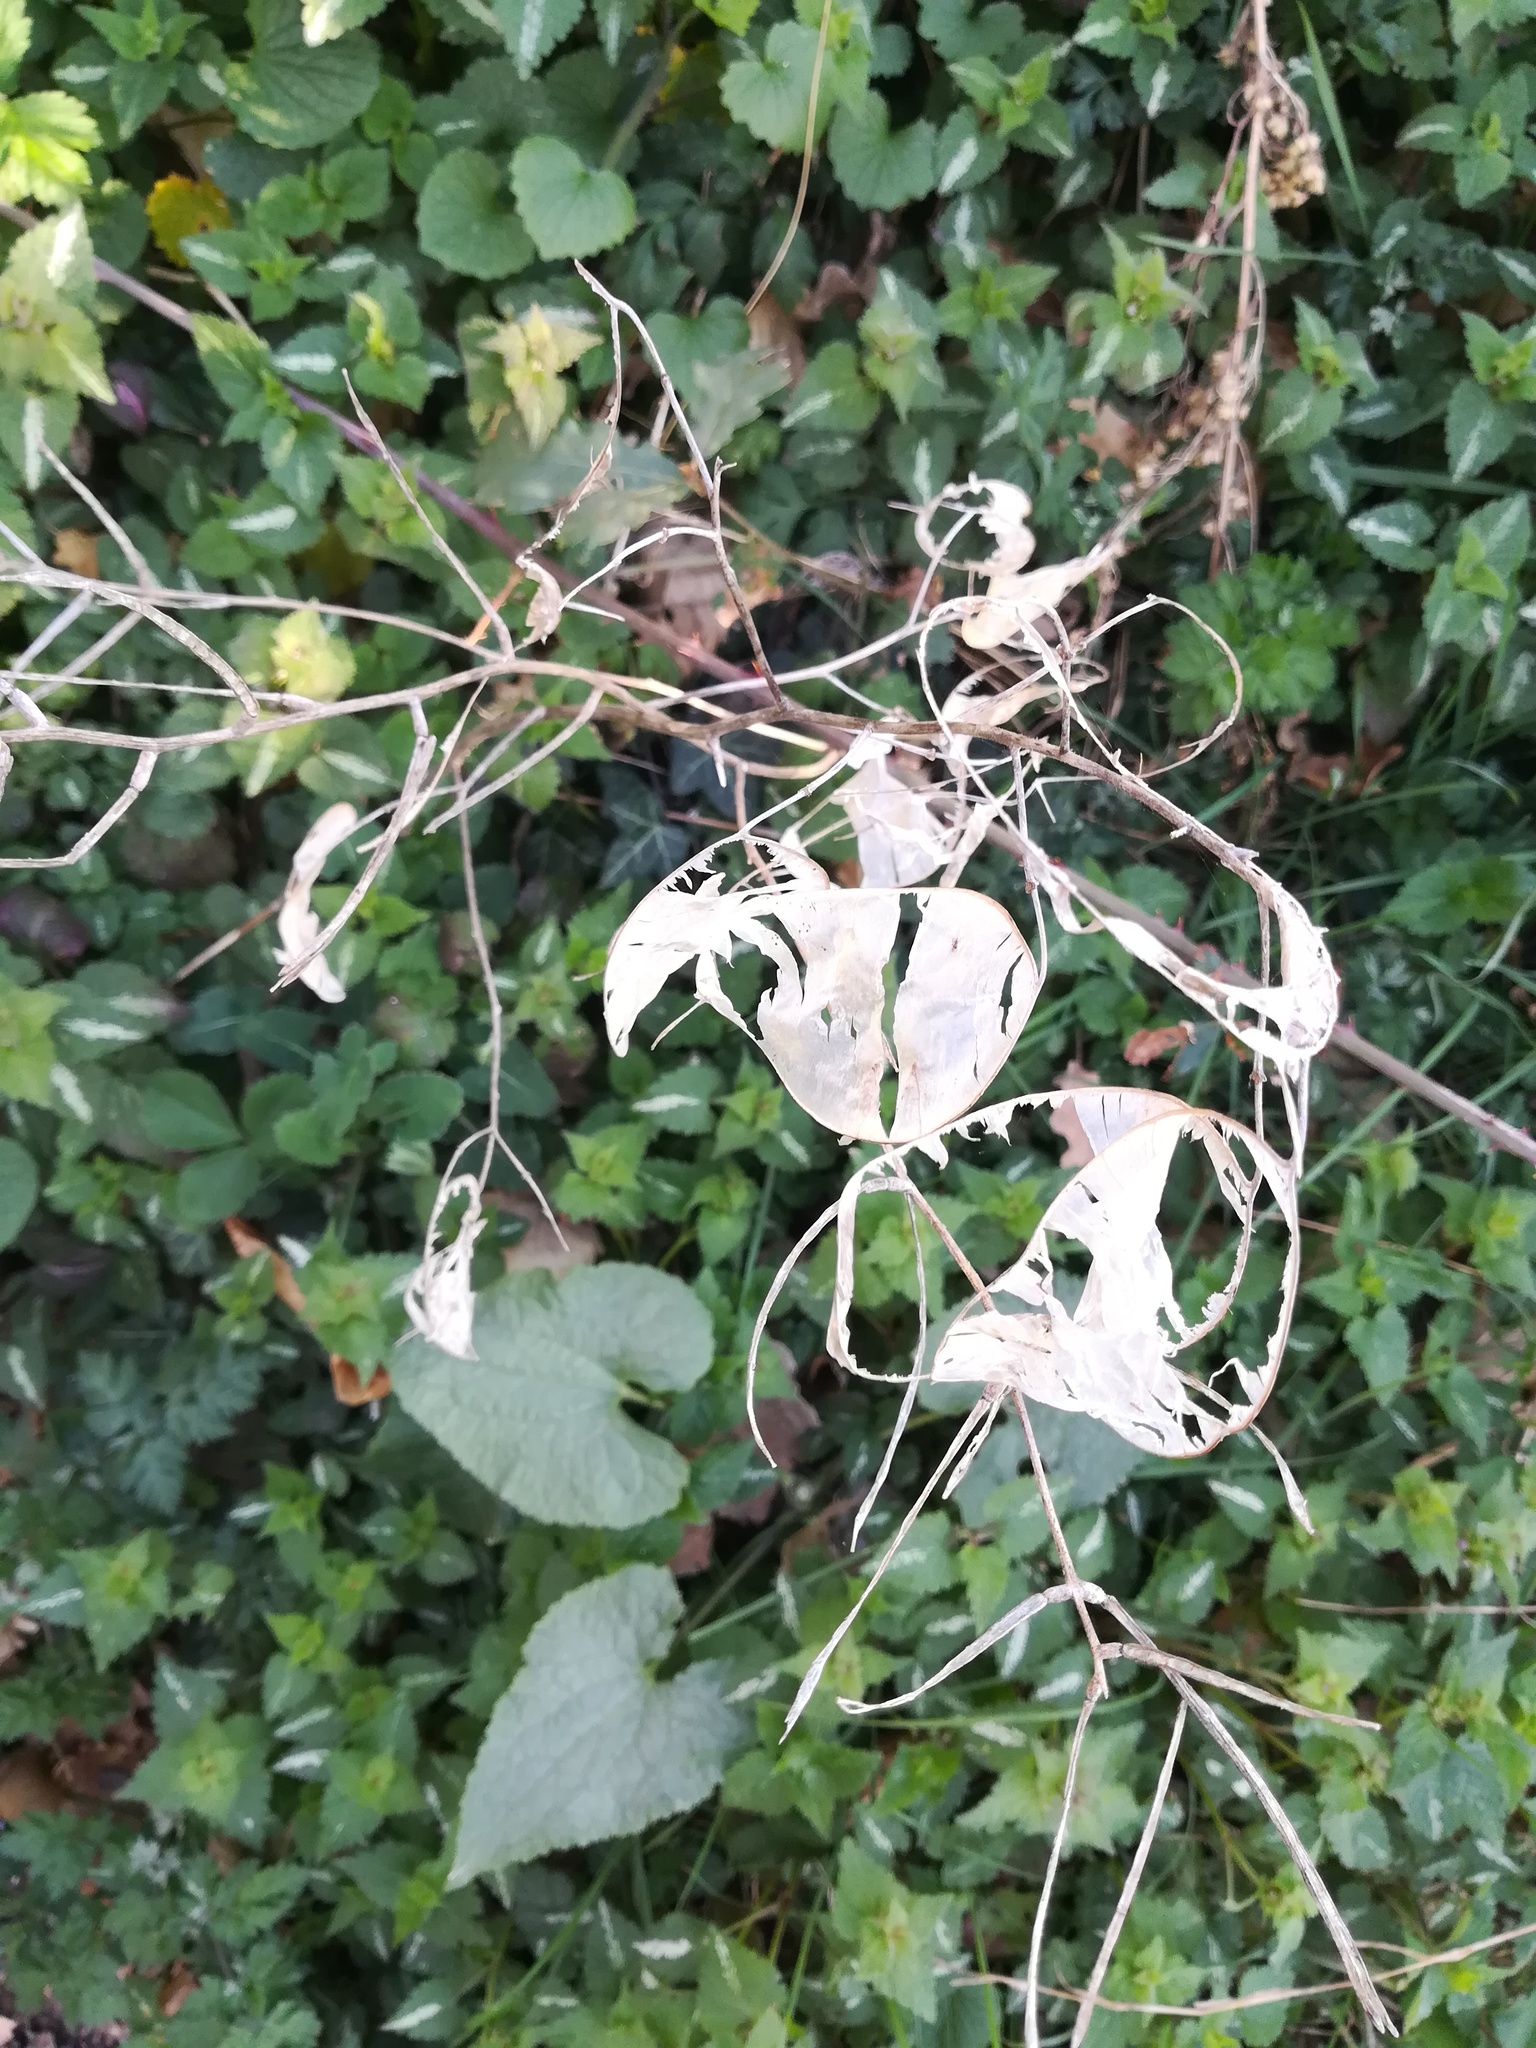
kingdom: Plantae
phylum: Tracheophyta
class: Magnoliopsida
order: Brassicales
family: Brassicaceae
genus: Lunaria
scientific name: Lunaria annua
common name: Honesty
